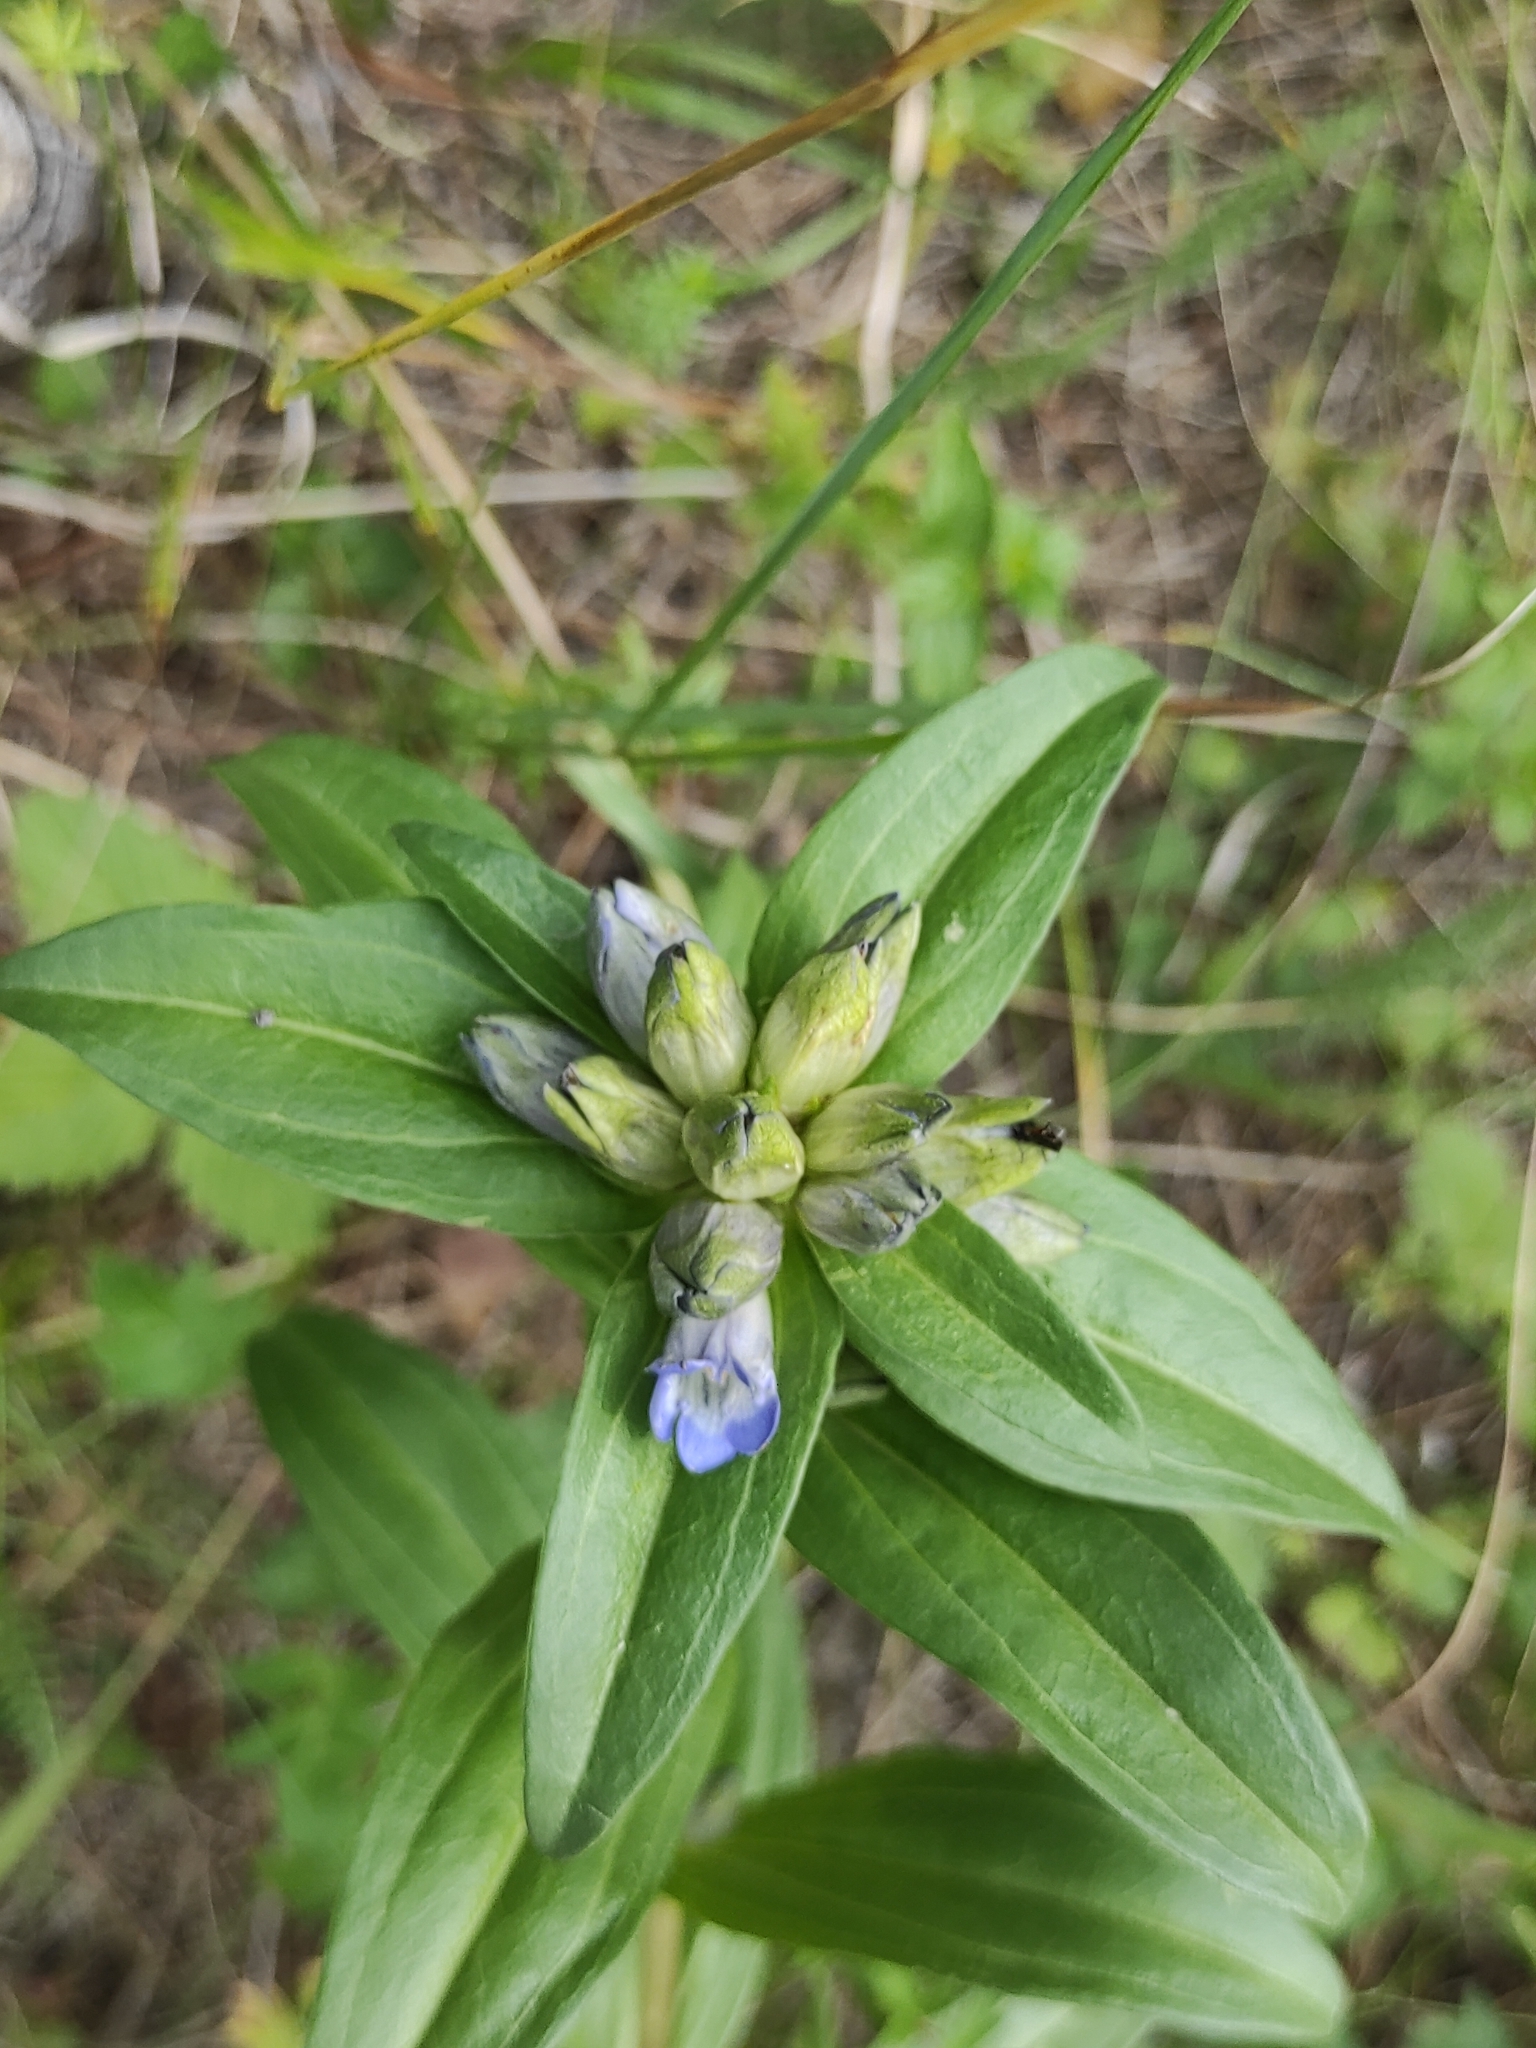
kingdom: Plantae
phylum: Tracheophyta
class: Magnoliopsida
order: Gentianales
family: Gentianaceae
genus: Gentiana
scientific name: Gentiana cruciata
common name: Cross gentian
